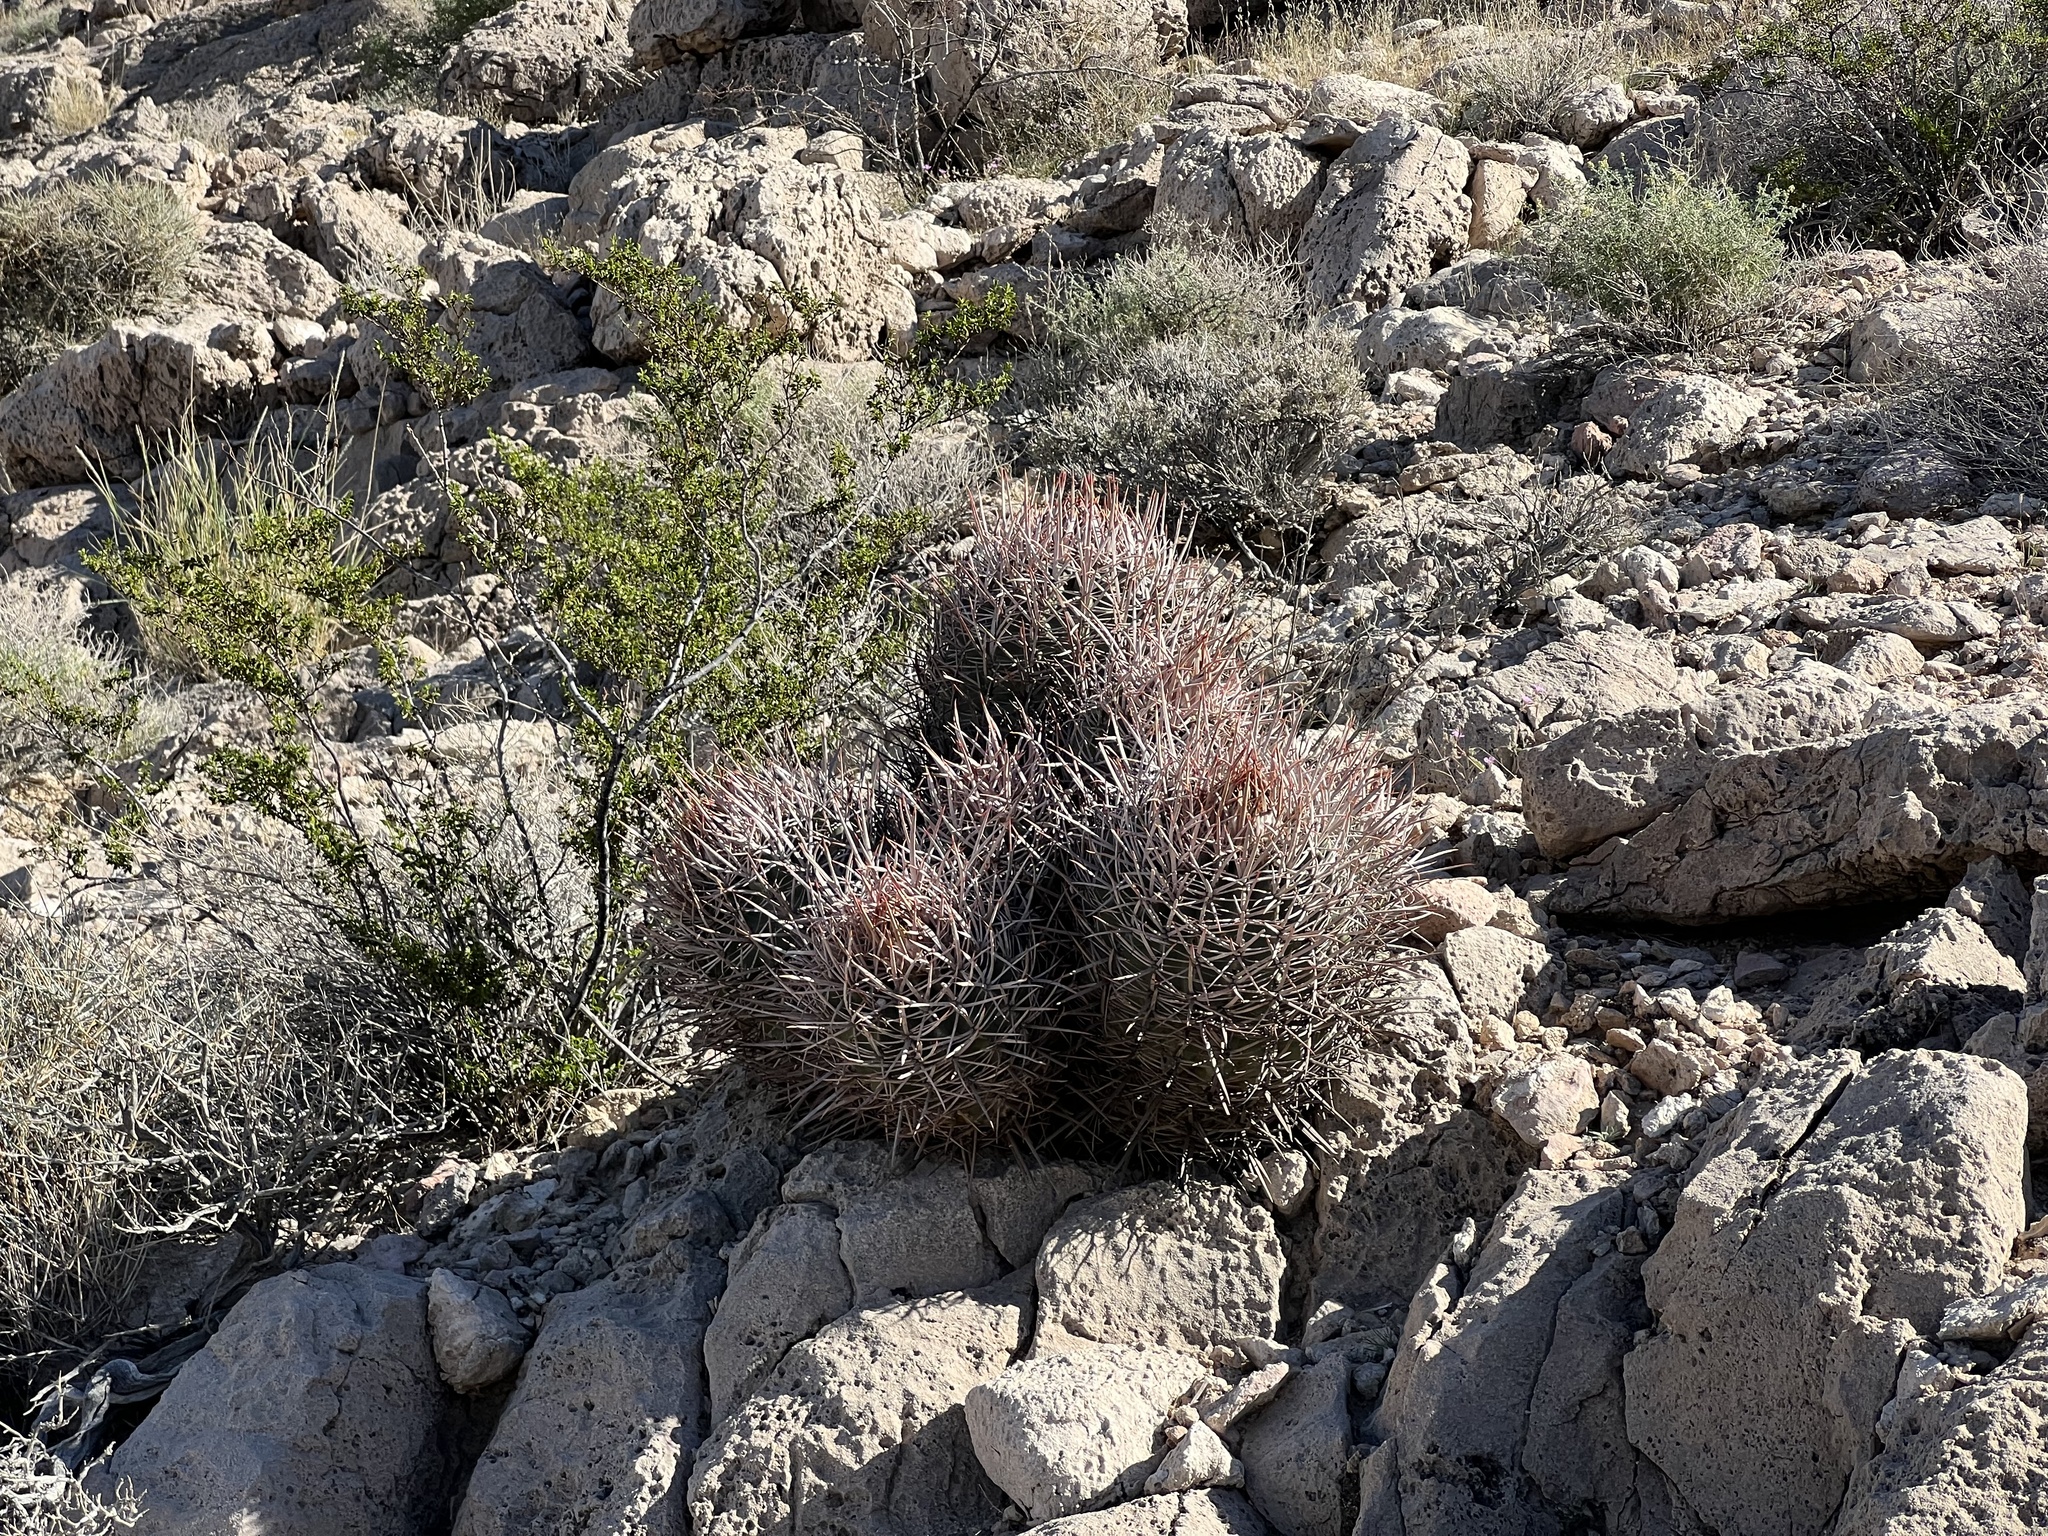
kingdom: Plantae
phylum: Tracheophyta
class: Magnoliopsida
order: Caryophyllales
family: Cactaceae
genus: Echinocactus
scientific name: Echinocactus polycephalus
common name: Cottontop cactus
